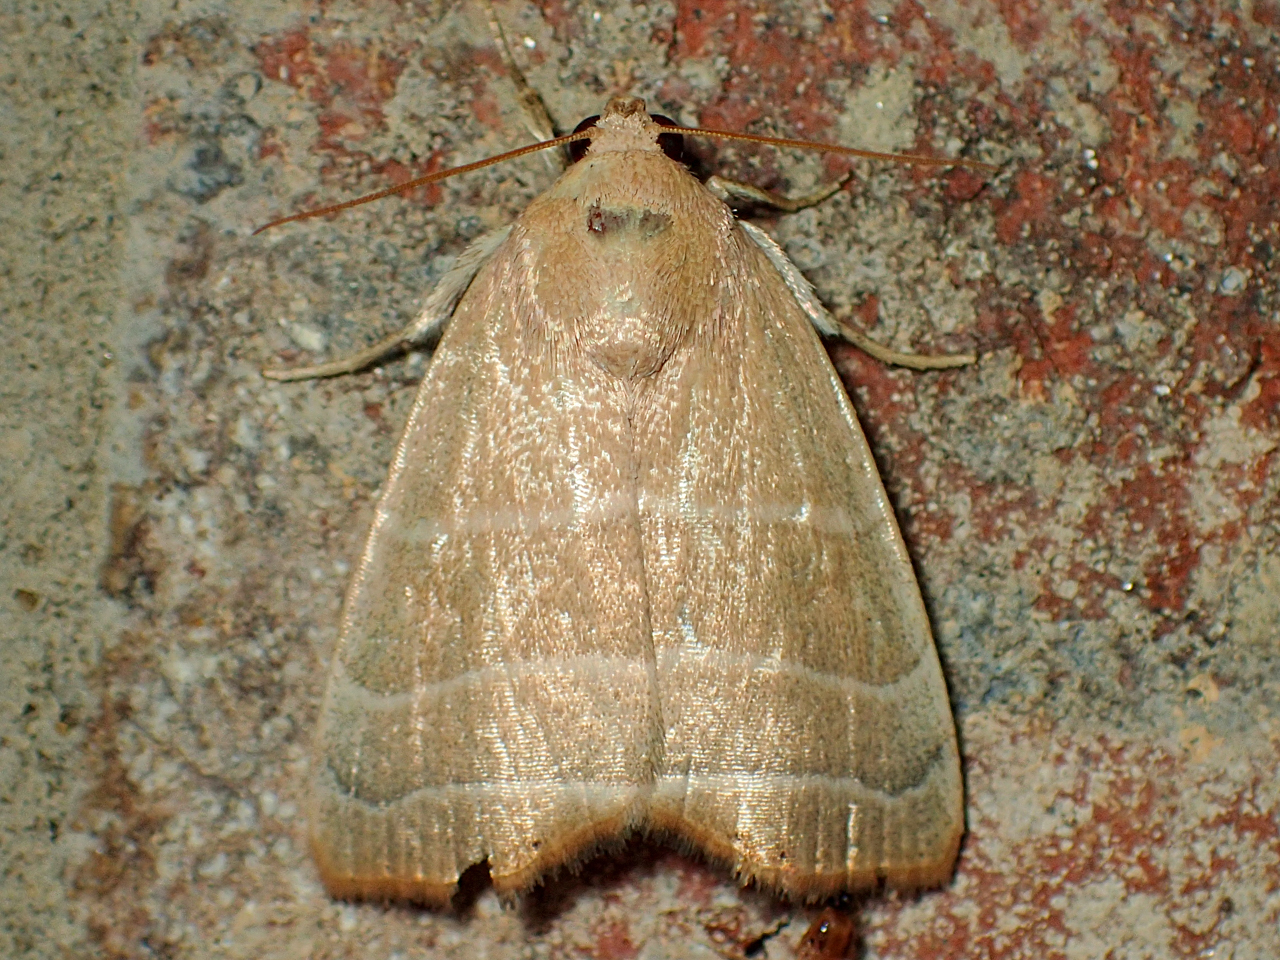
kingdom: Animalia
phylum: Arthropoda
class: Insecta
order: Lepidoptera
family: Noctuidae
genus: Bagisara
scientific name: Bagisara rectifascia
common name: Straight lined mallow moth
